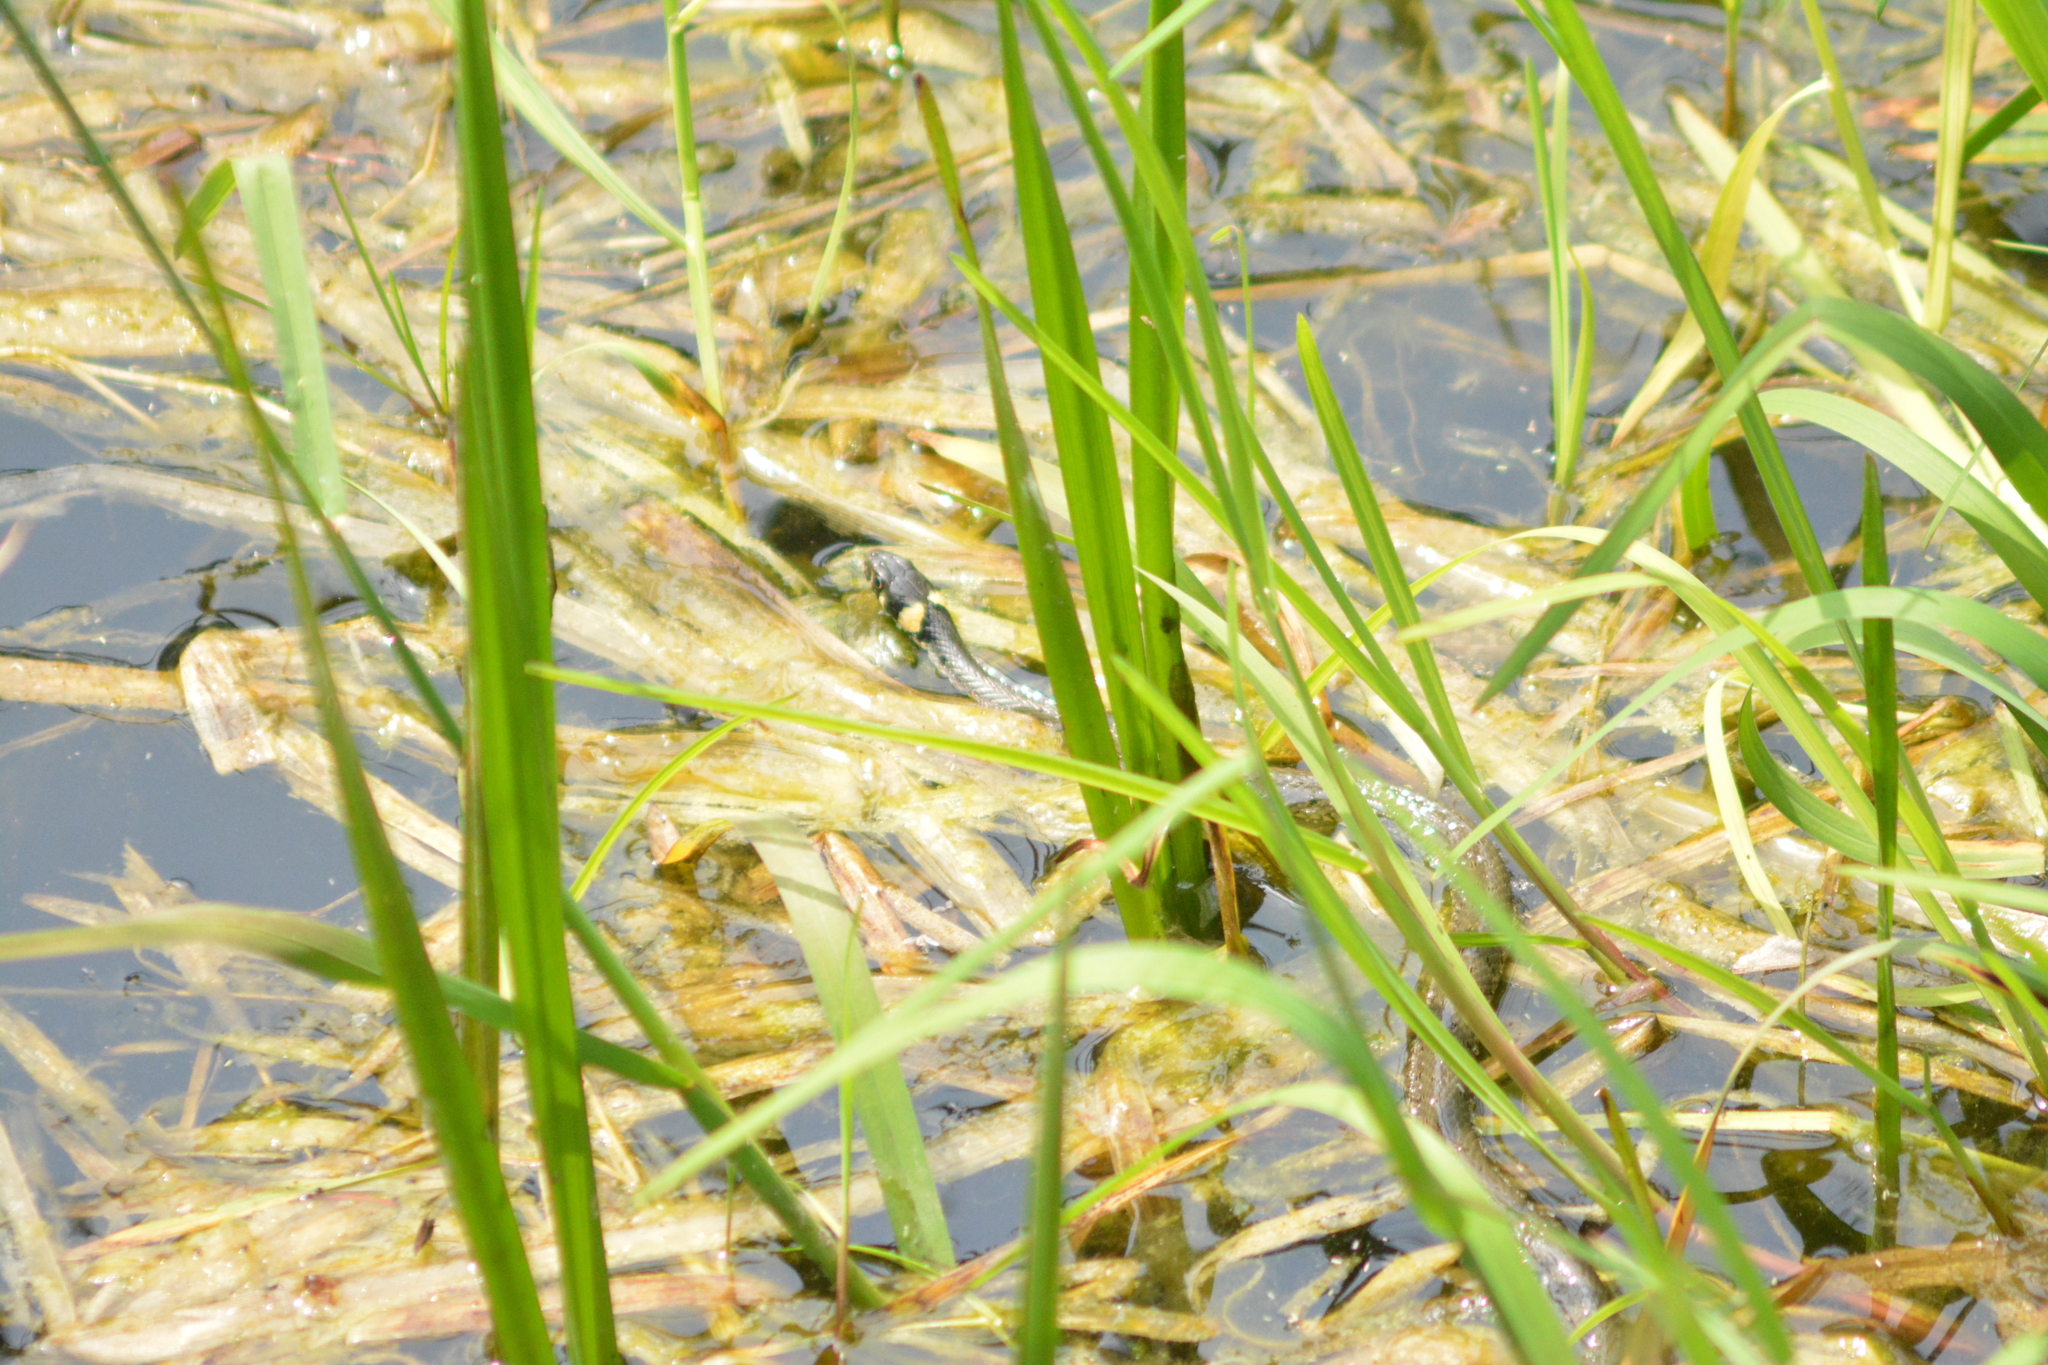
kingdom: Animalia
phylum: Chordata
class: Squamata
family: Colubridae
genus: Natrix
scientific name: Natrix natrix
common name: Grass snake
